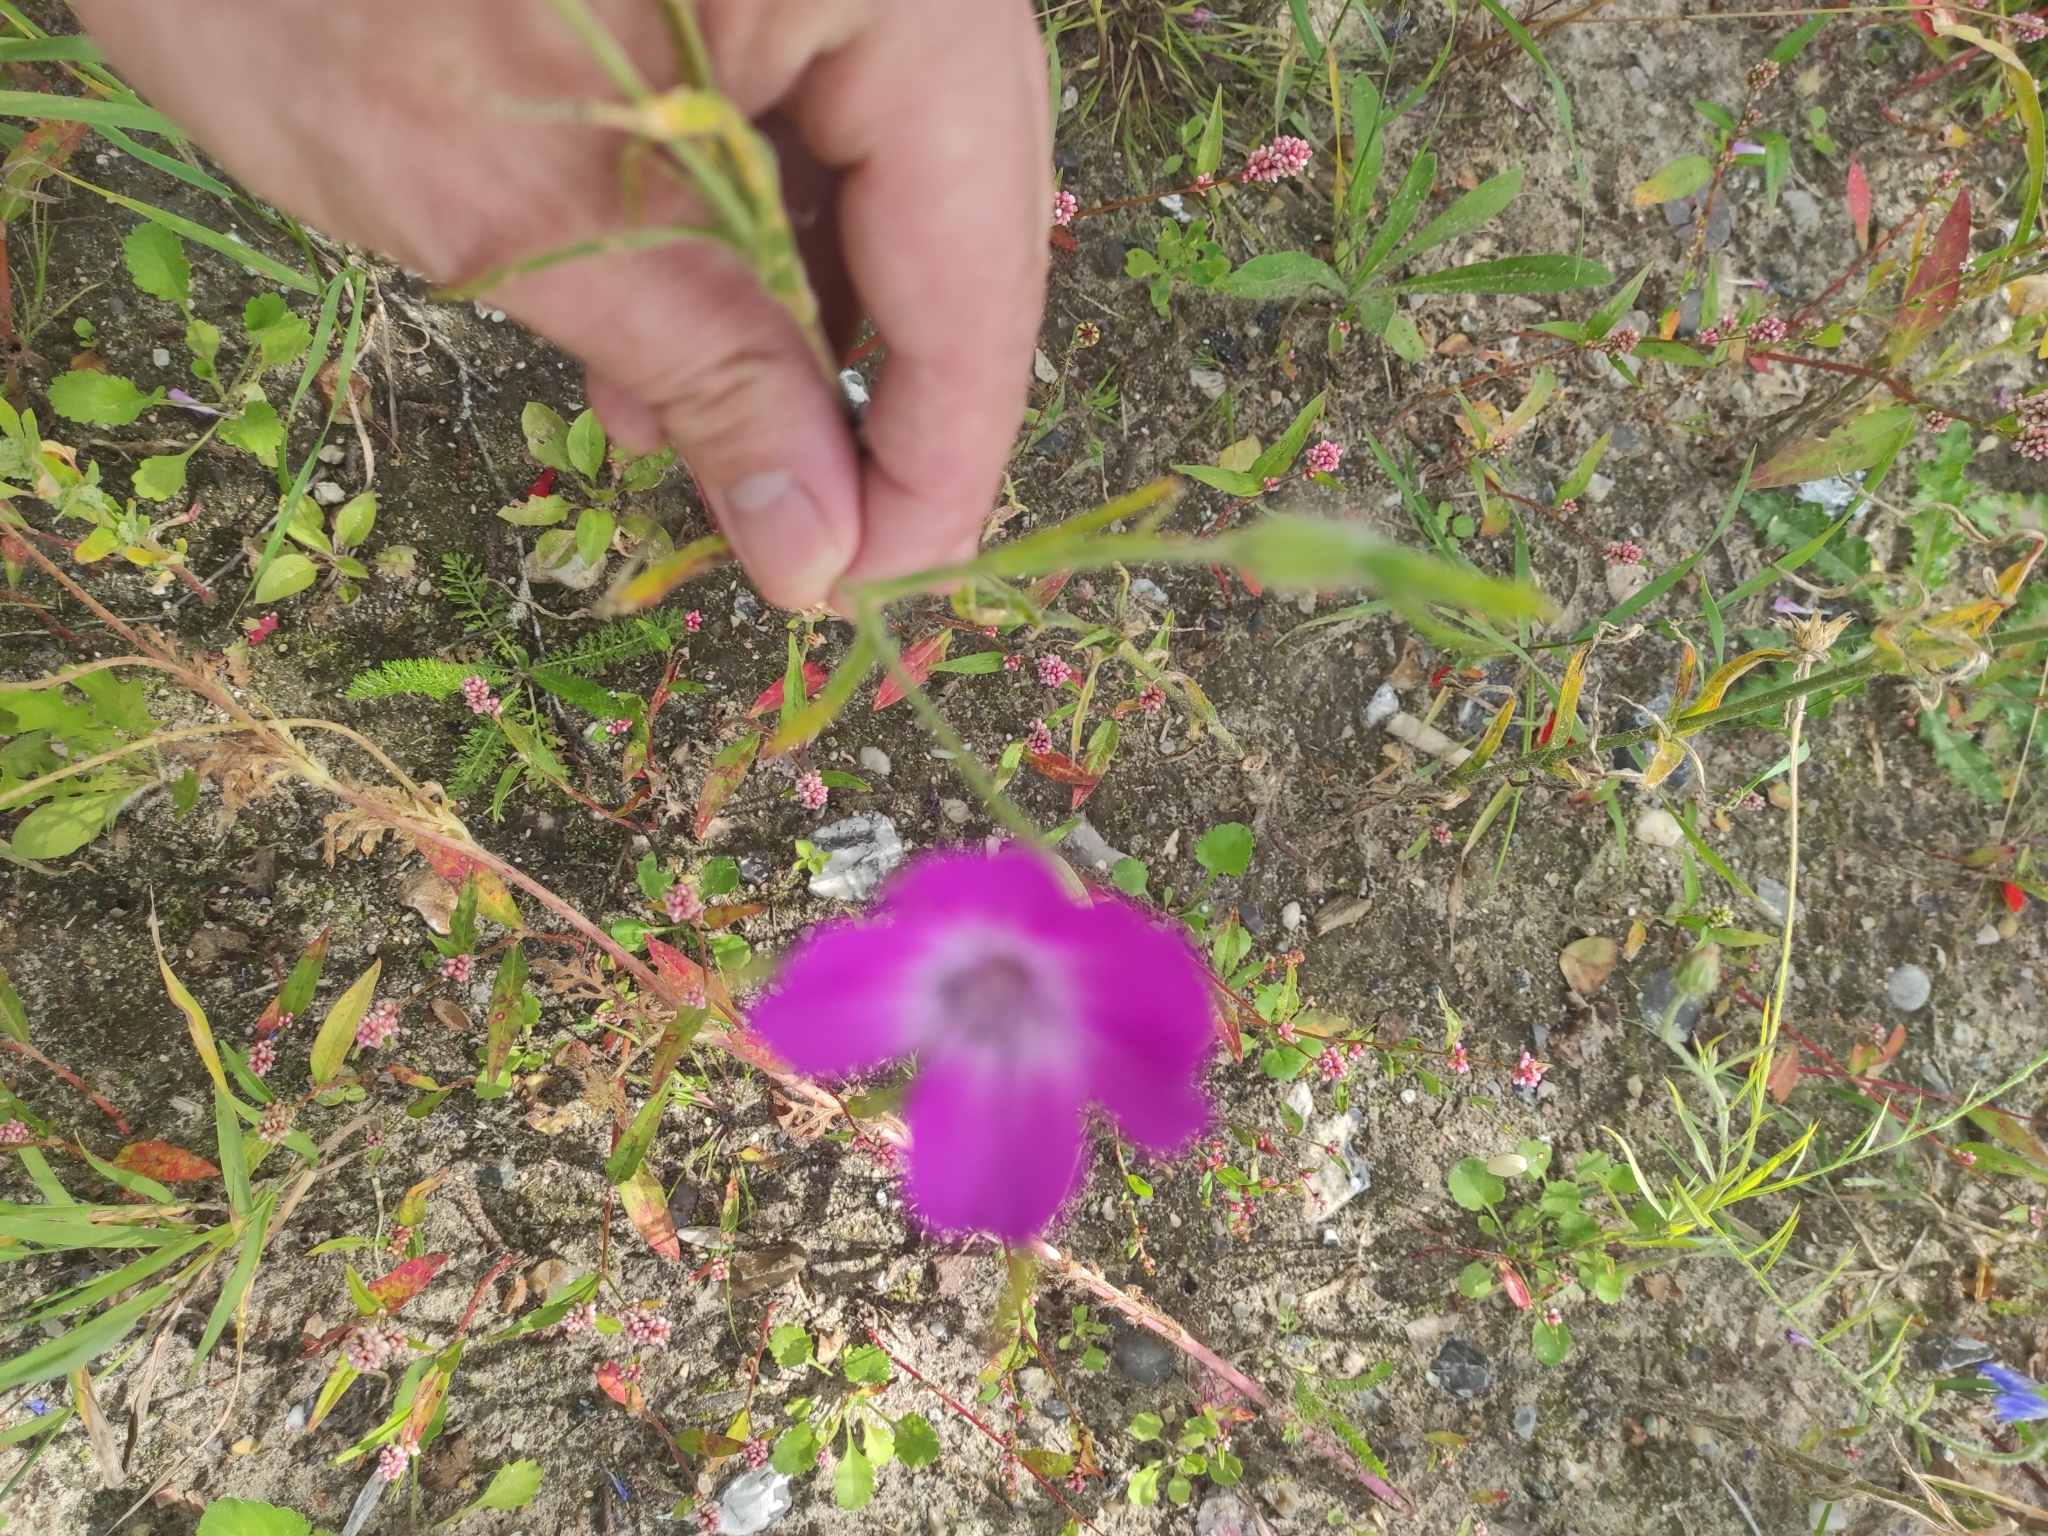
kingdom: Plantae
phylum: Tracheophyta
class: Magnoliopsida
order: Caryophyllales
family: Caryophyllaceae
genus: Agrostemma
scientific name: Agrostemma githago
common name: Common corncockle
